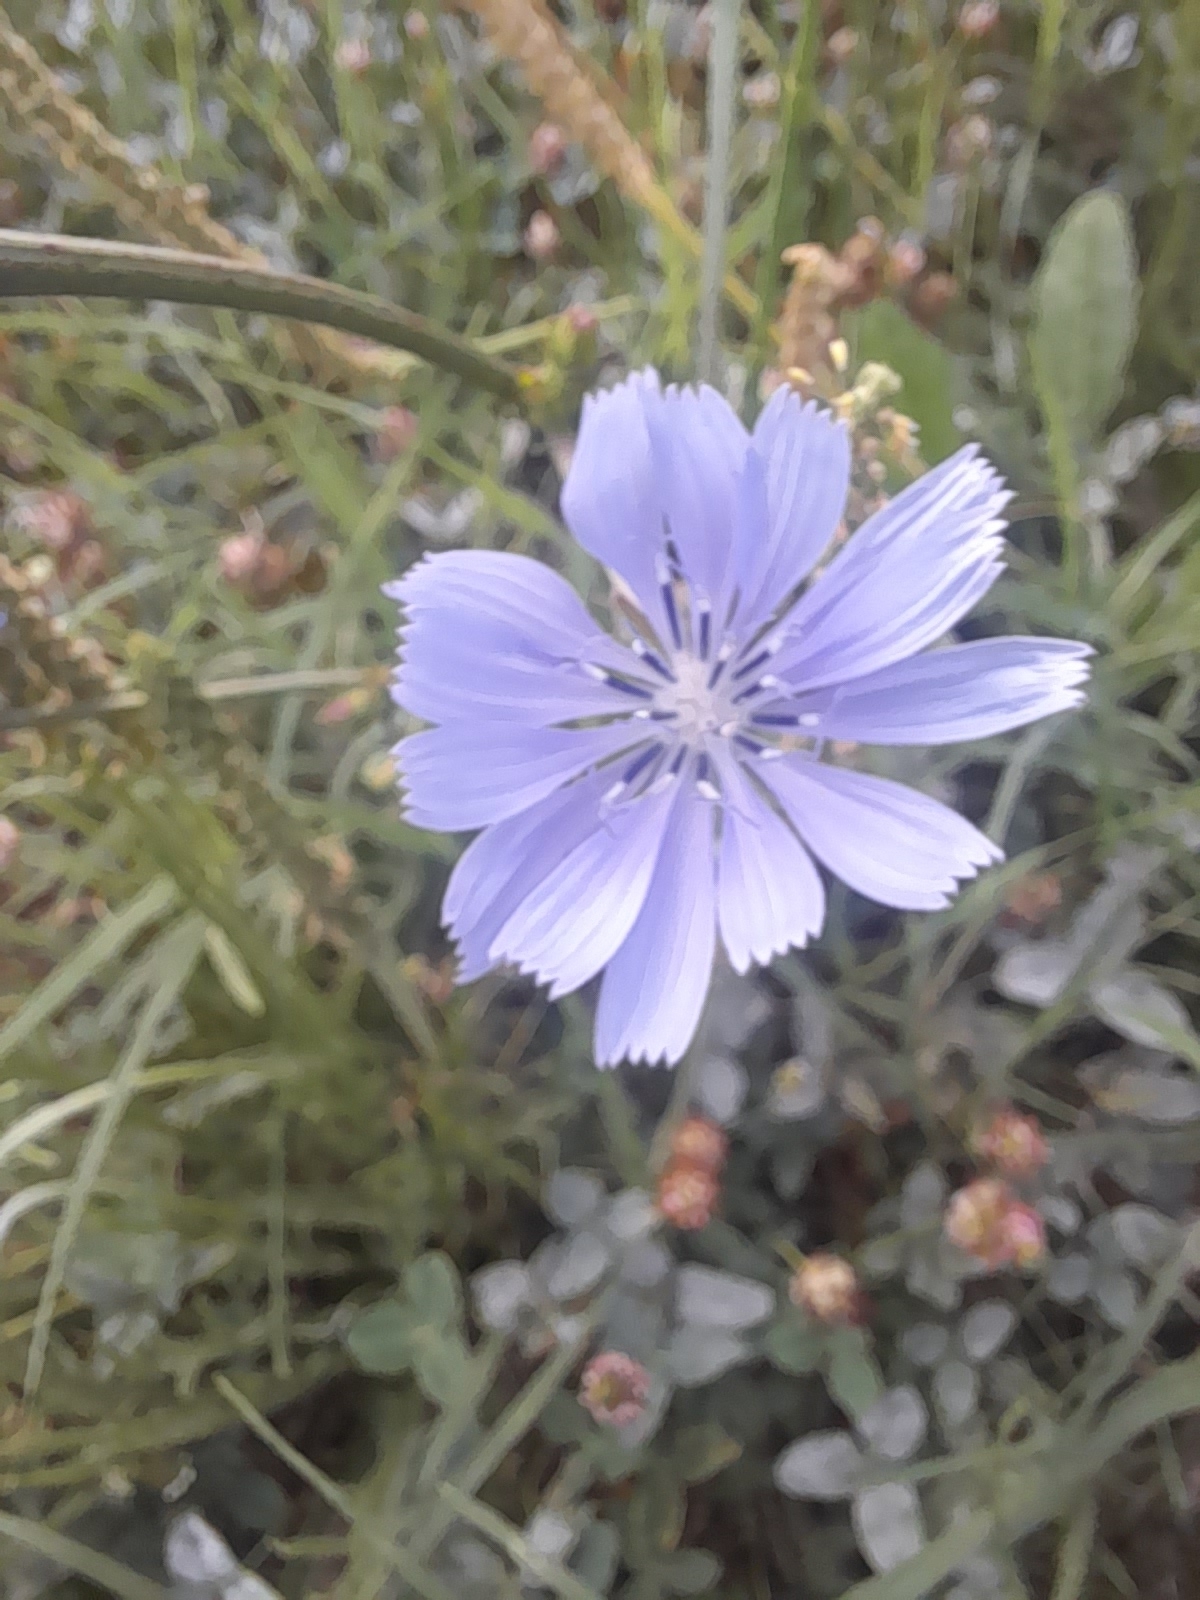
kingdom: Plantae
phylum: Tracheophyta
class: Magnoliopsida
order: Asterales
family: Asteraceae
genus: Cichorium
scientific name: Cichorium intybus
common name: Chicory
